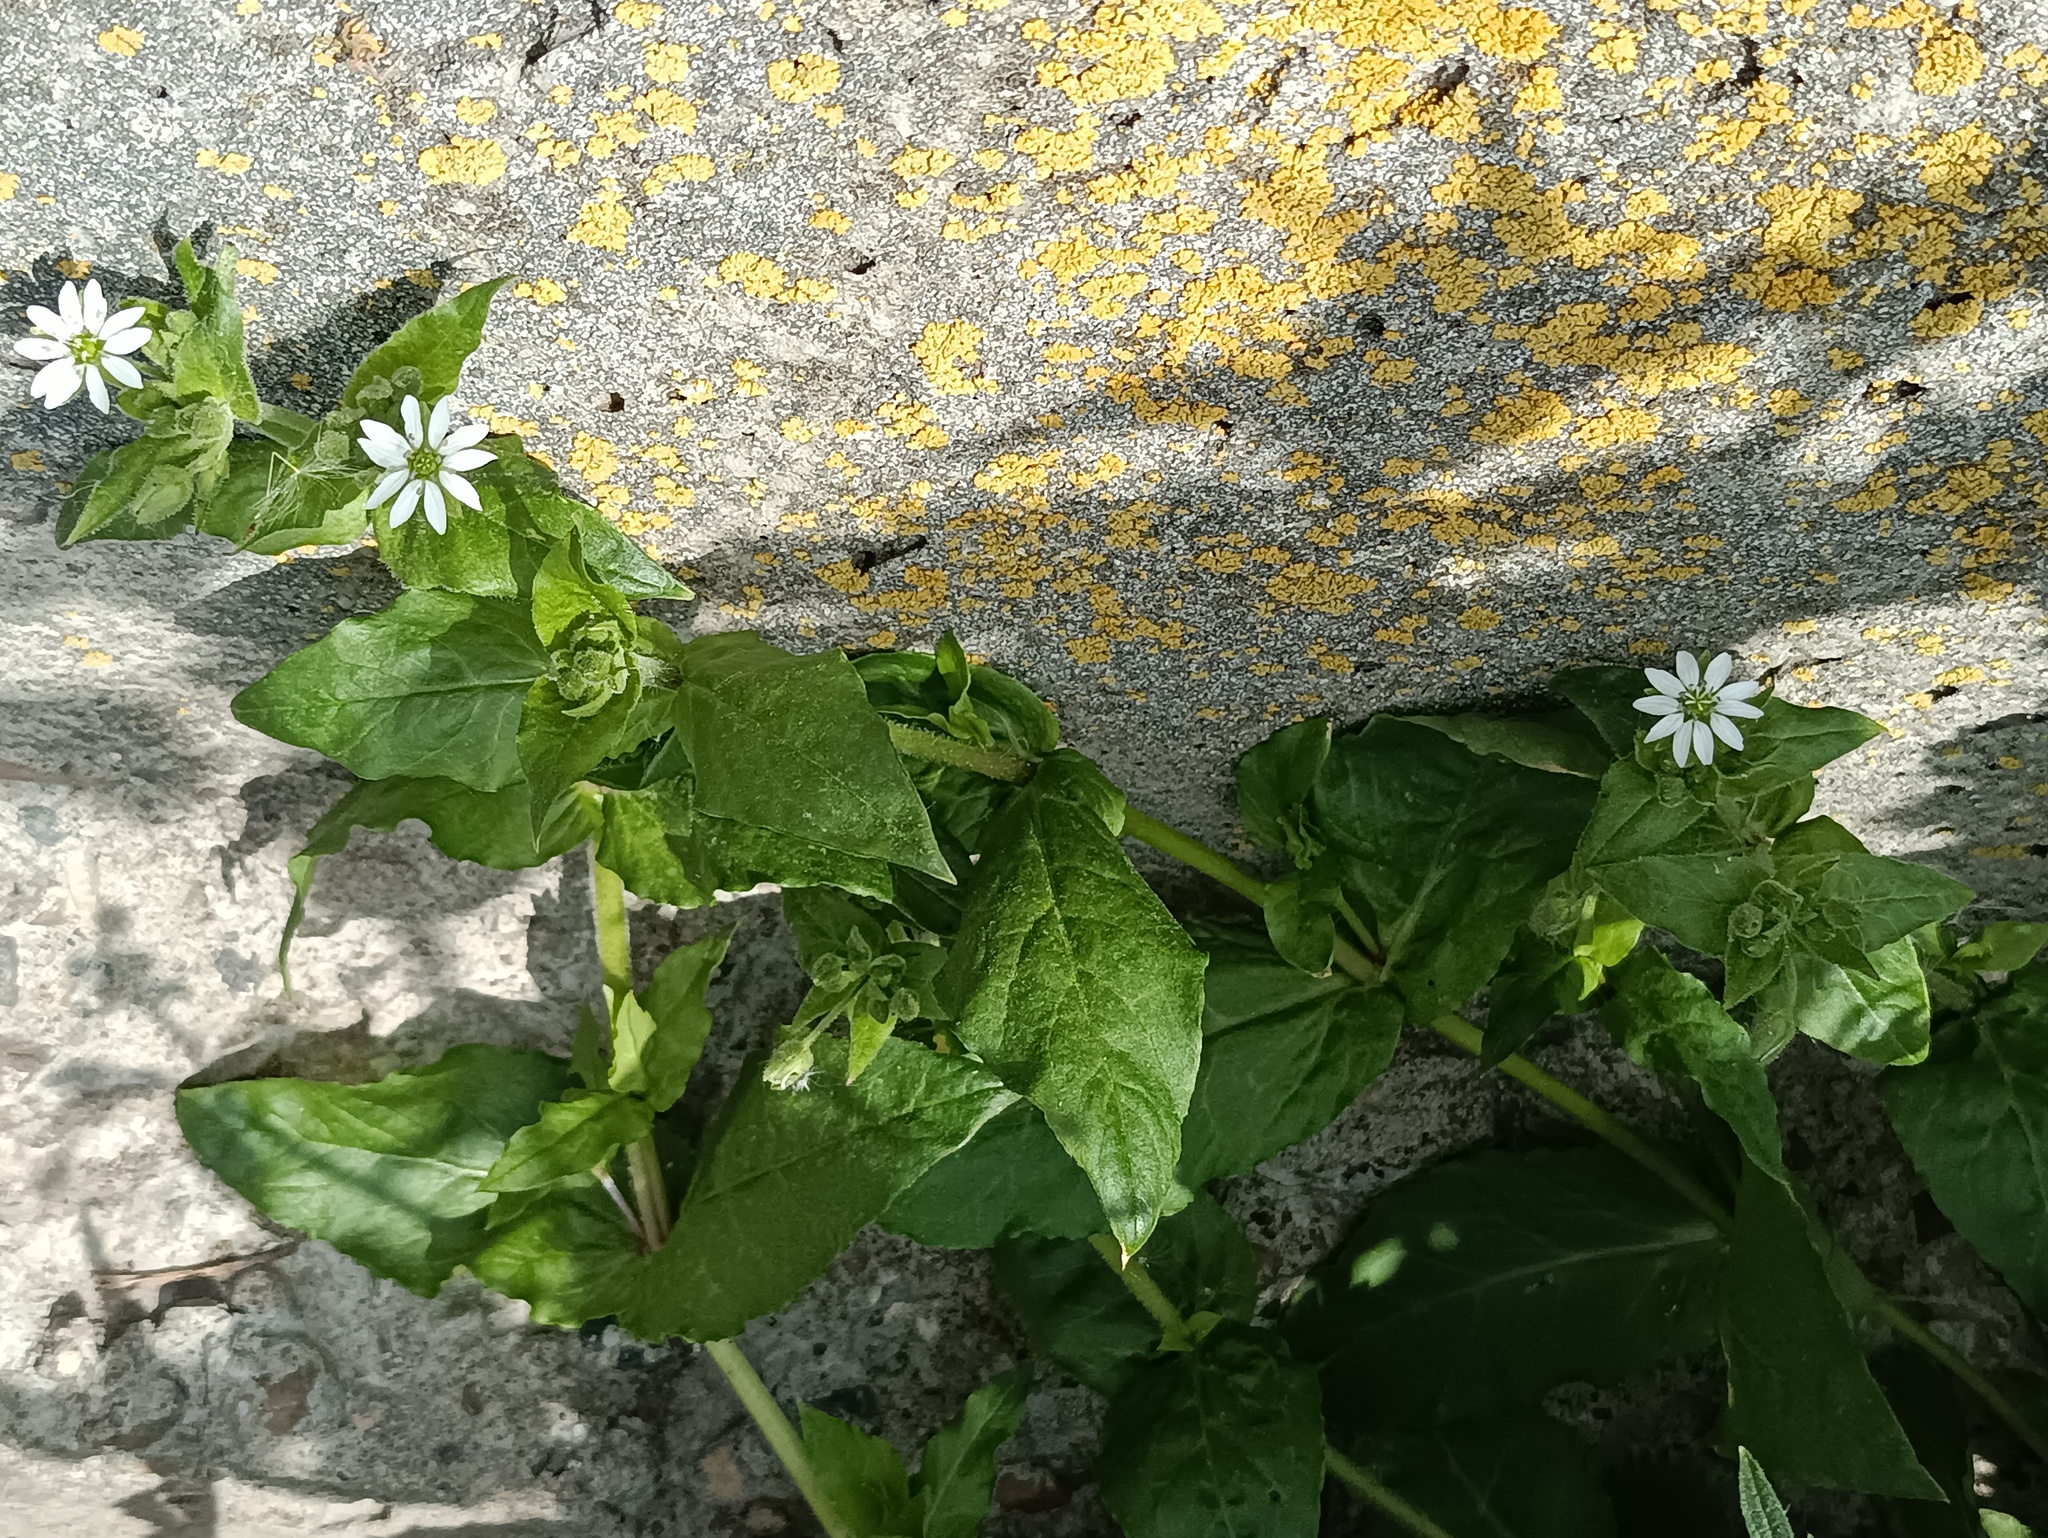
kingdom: Plantae
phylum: Tracheophyta
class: Magnoliopsida
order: Caryophyllales
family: Caryophyllaceae
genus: Stellaria
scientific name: Stellaria aquatica
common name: Water chickweed
